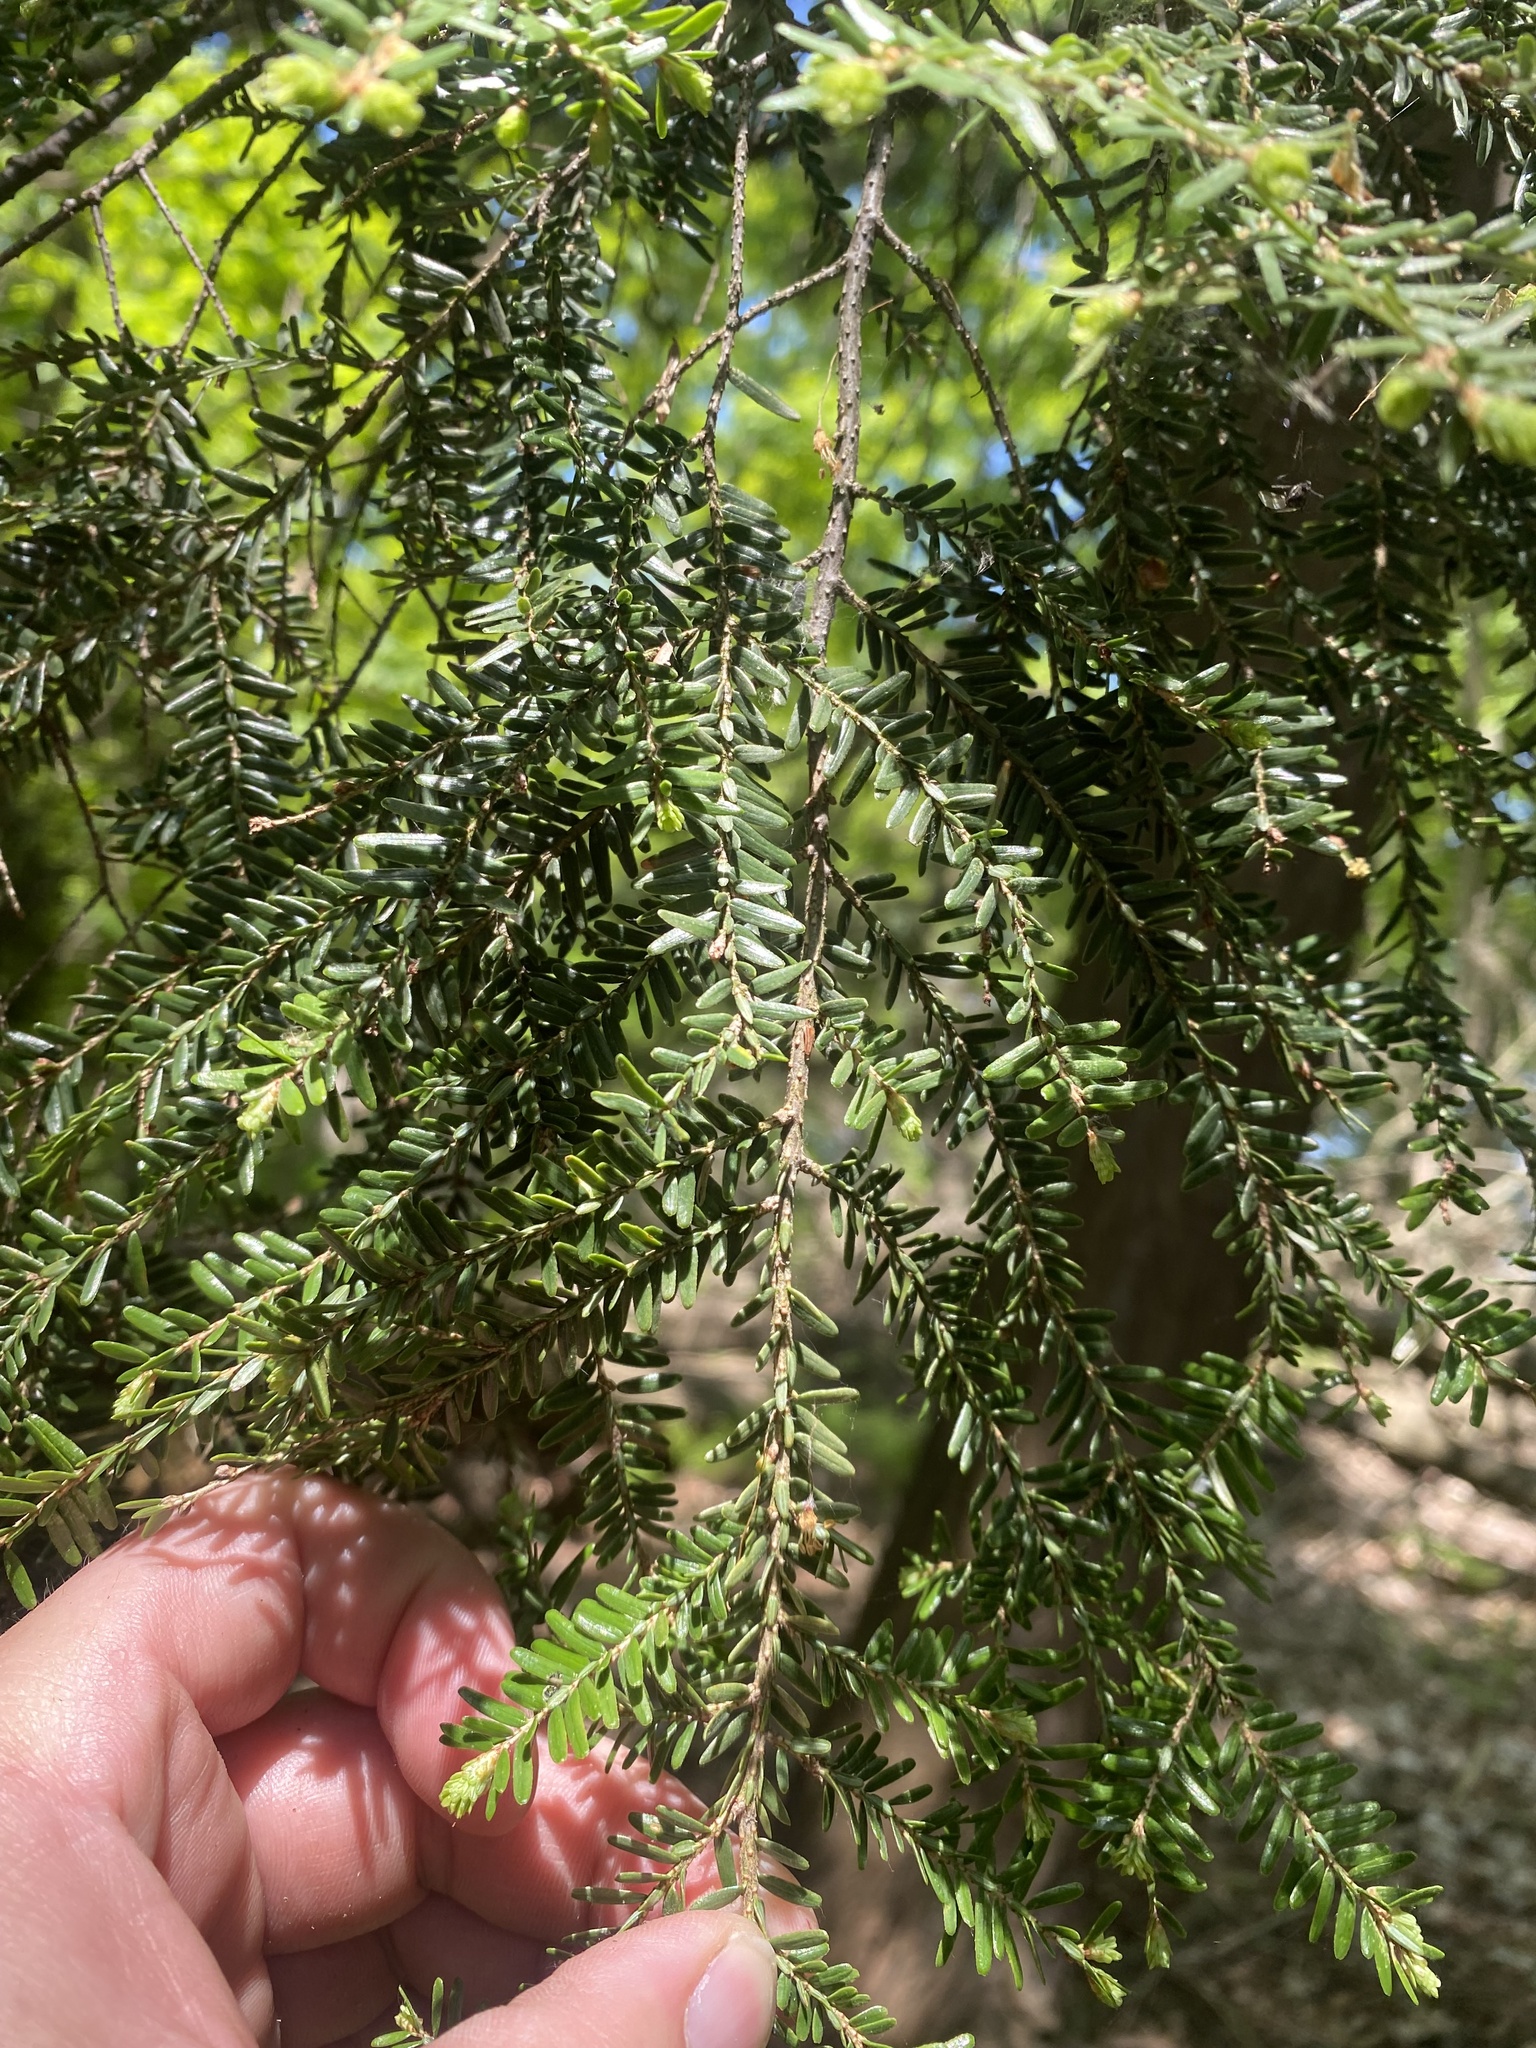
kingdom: Plantae
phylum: Tracheophyta
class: Pinopsida
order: Pinales
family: Pinaceae
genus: Tsuga
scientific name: Tsuga canadensis
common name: Eastern hemlock
